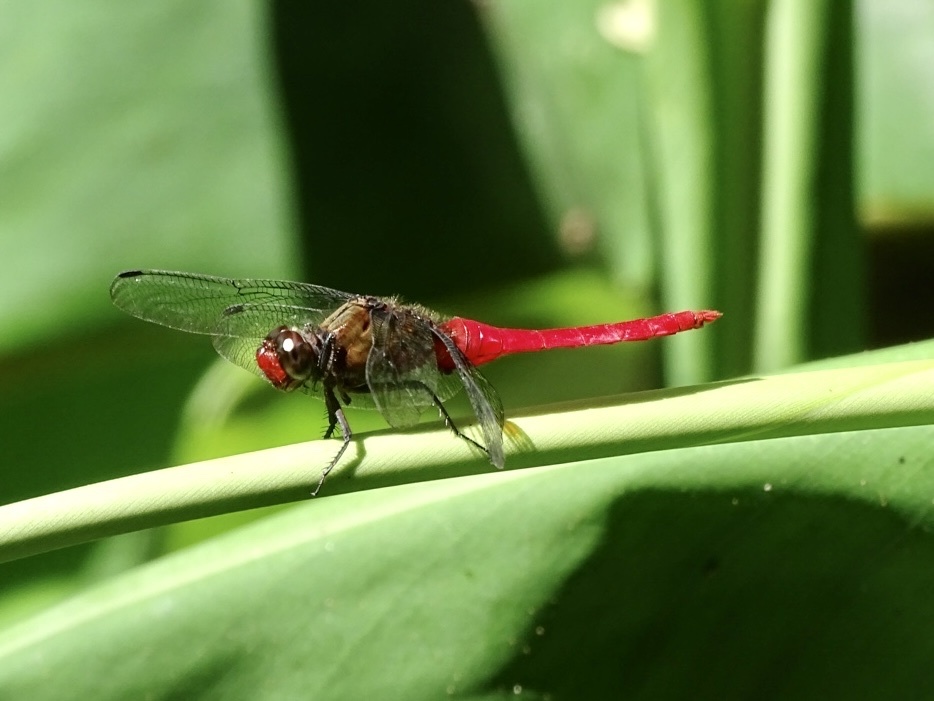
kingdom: Animalia
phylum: Arthropoda
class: Insecta
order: Odonata
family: Libellulidae
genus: Orthetrum
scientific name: Orthetrum chrysis
